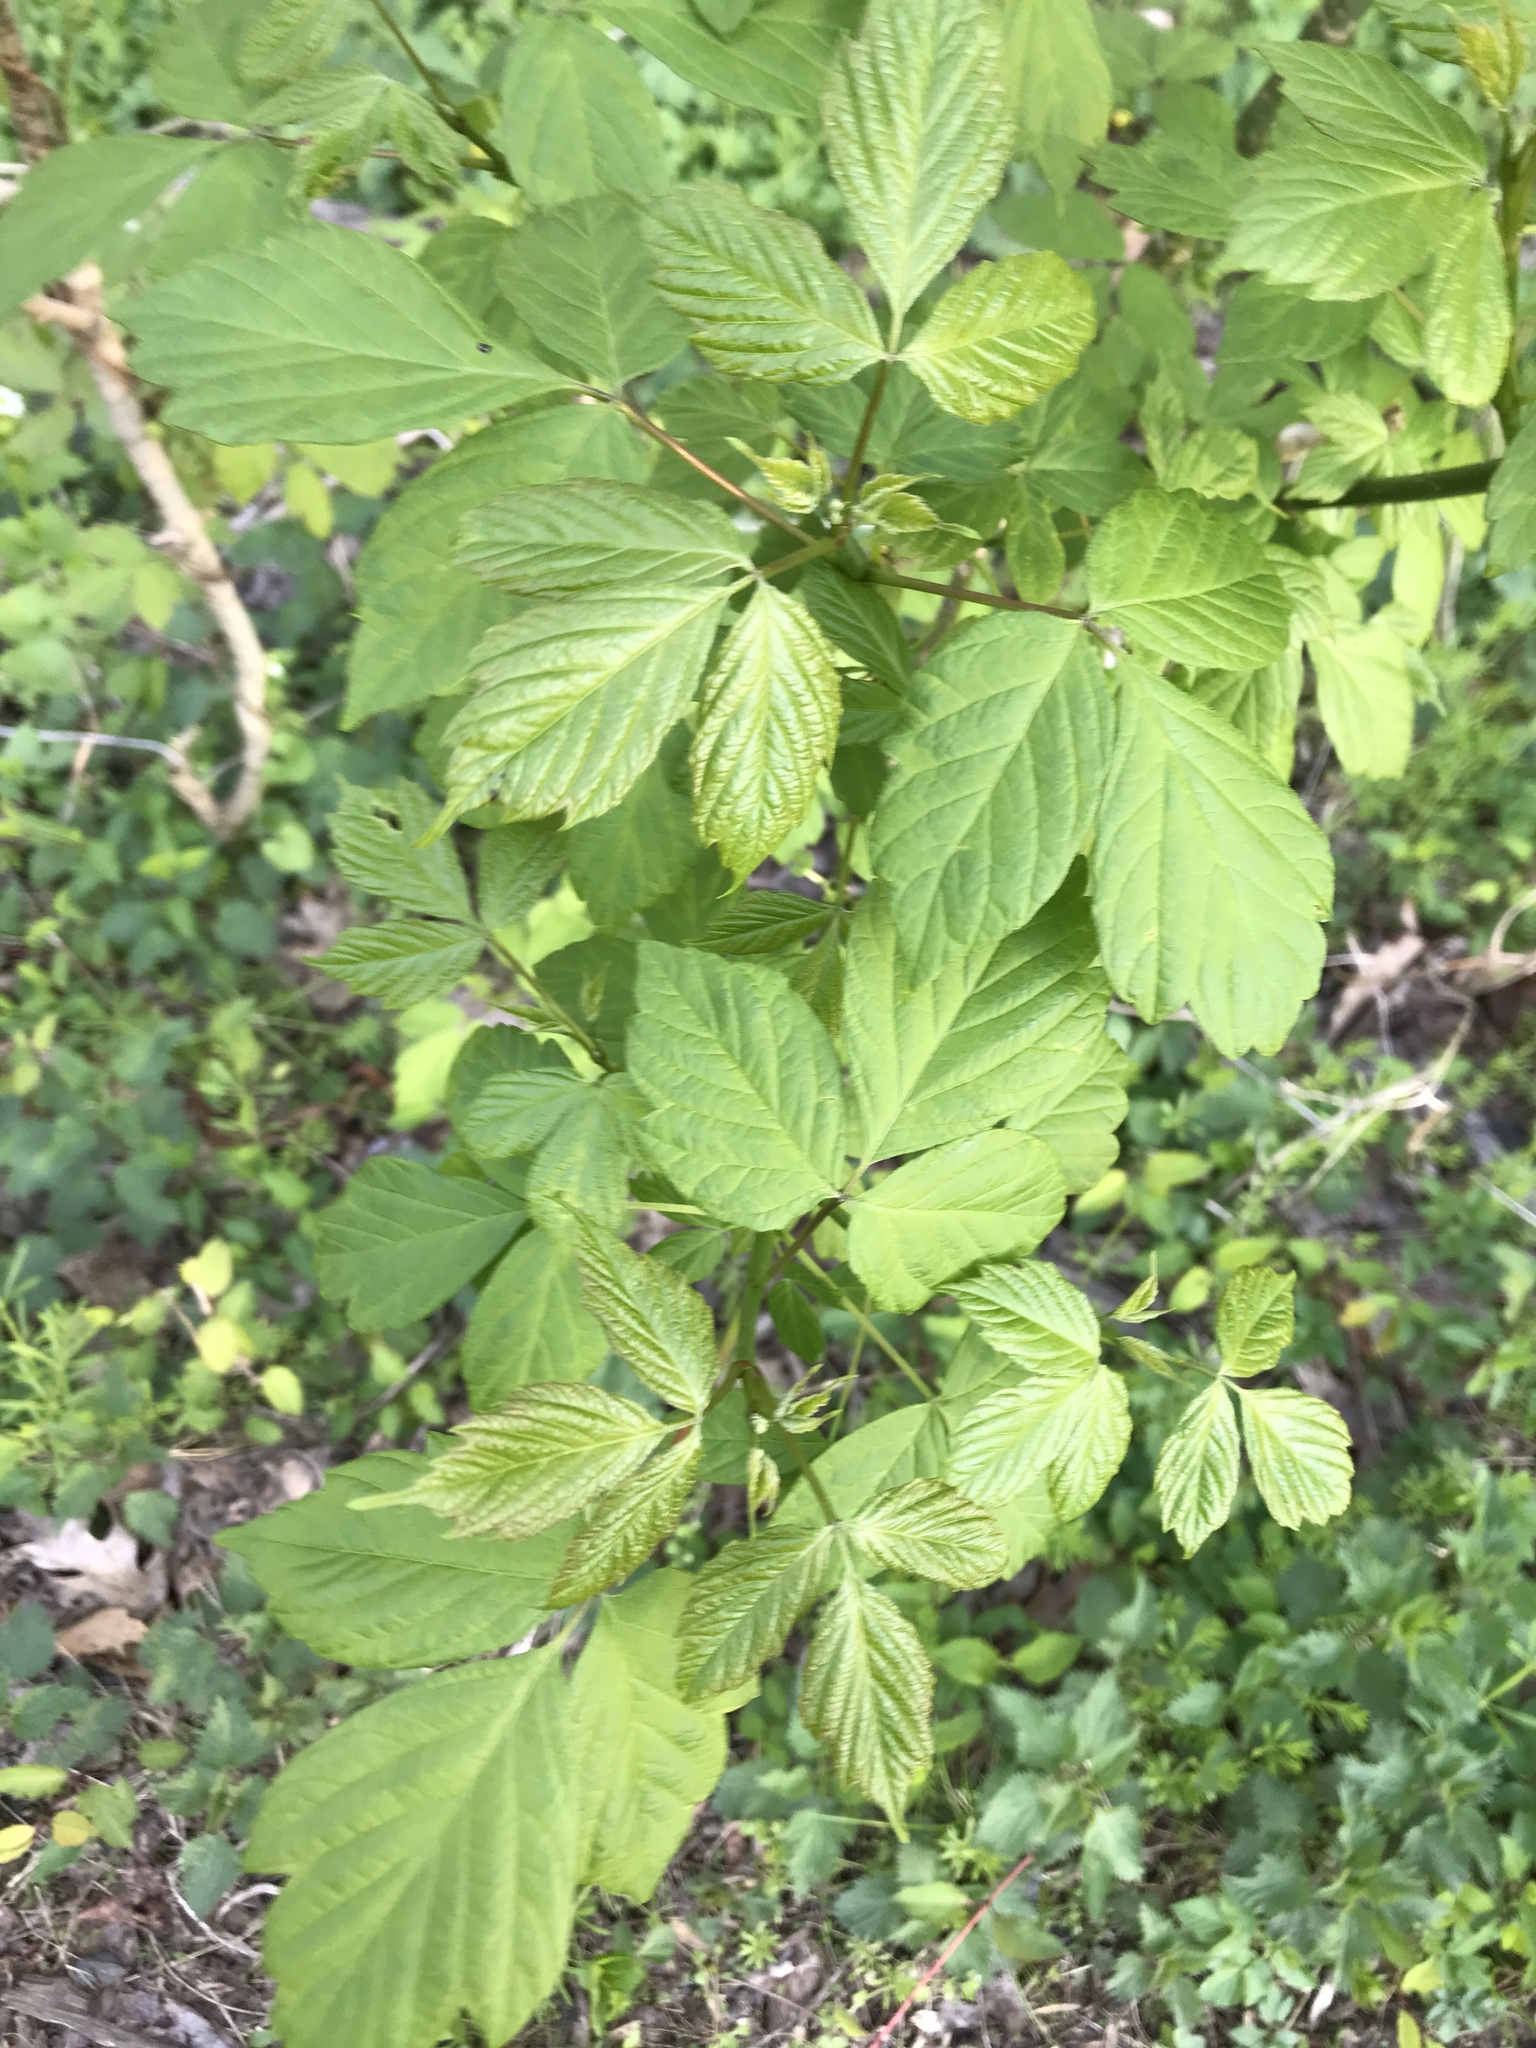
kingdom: Plantae
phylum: Tracheophyta
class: Magnoliopsida
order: Sapindales
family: Sapindaceae
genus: Acer
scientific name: Acer negundo
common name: Ashleaf maple
